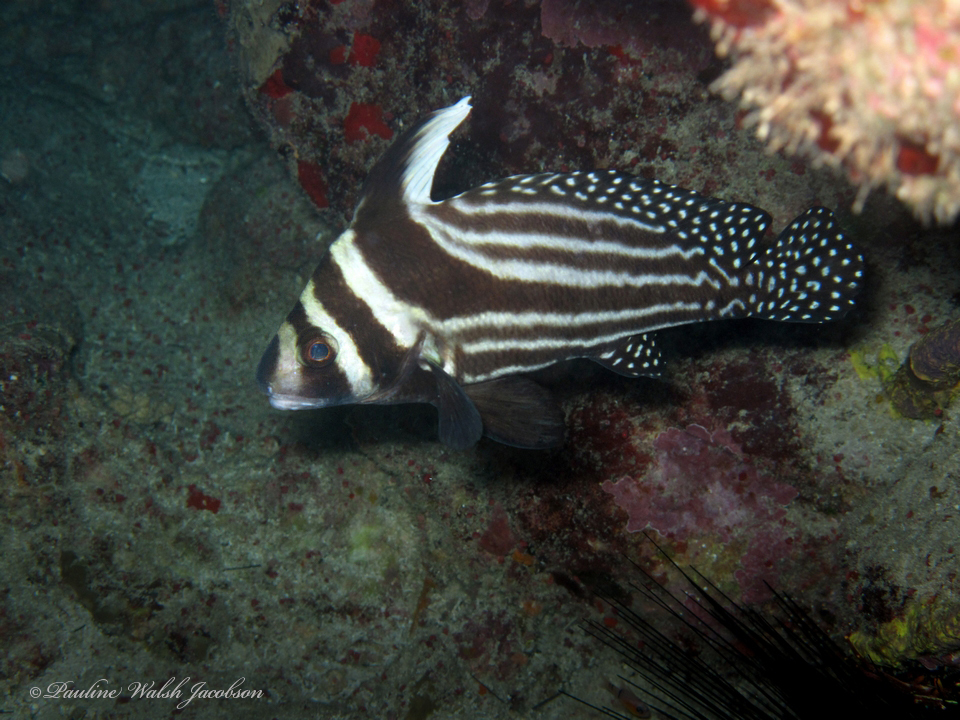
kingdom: Animalia
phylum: Chordata
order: Perciformes
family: Sciaenidae
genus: Equetus
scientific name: Equetus punctatus
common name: Spotted drum
